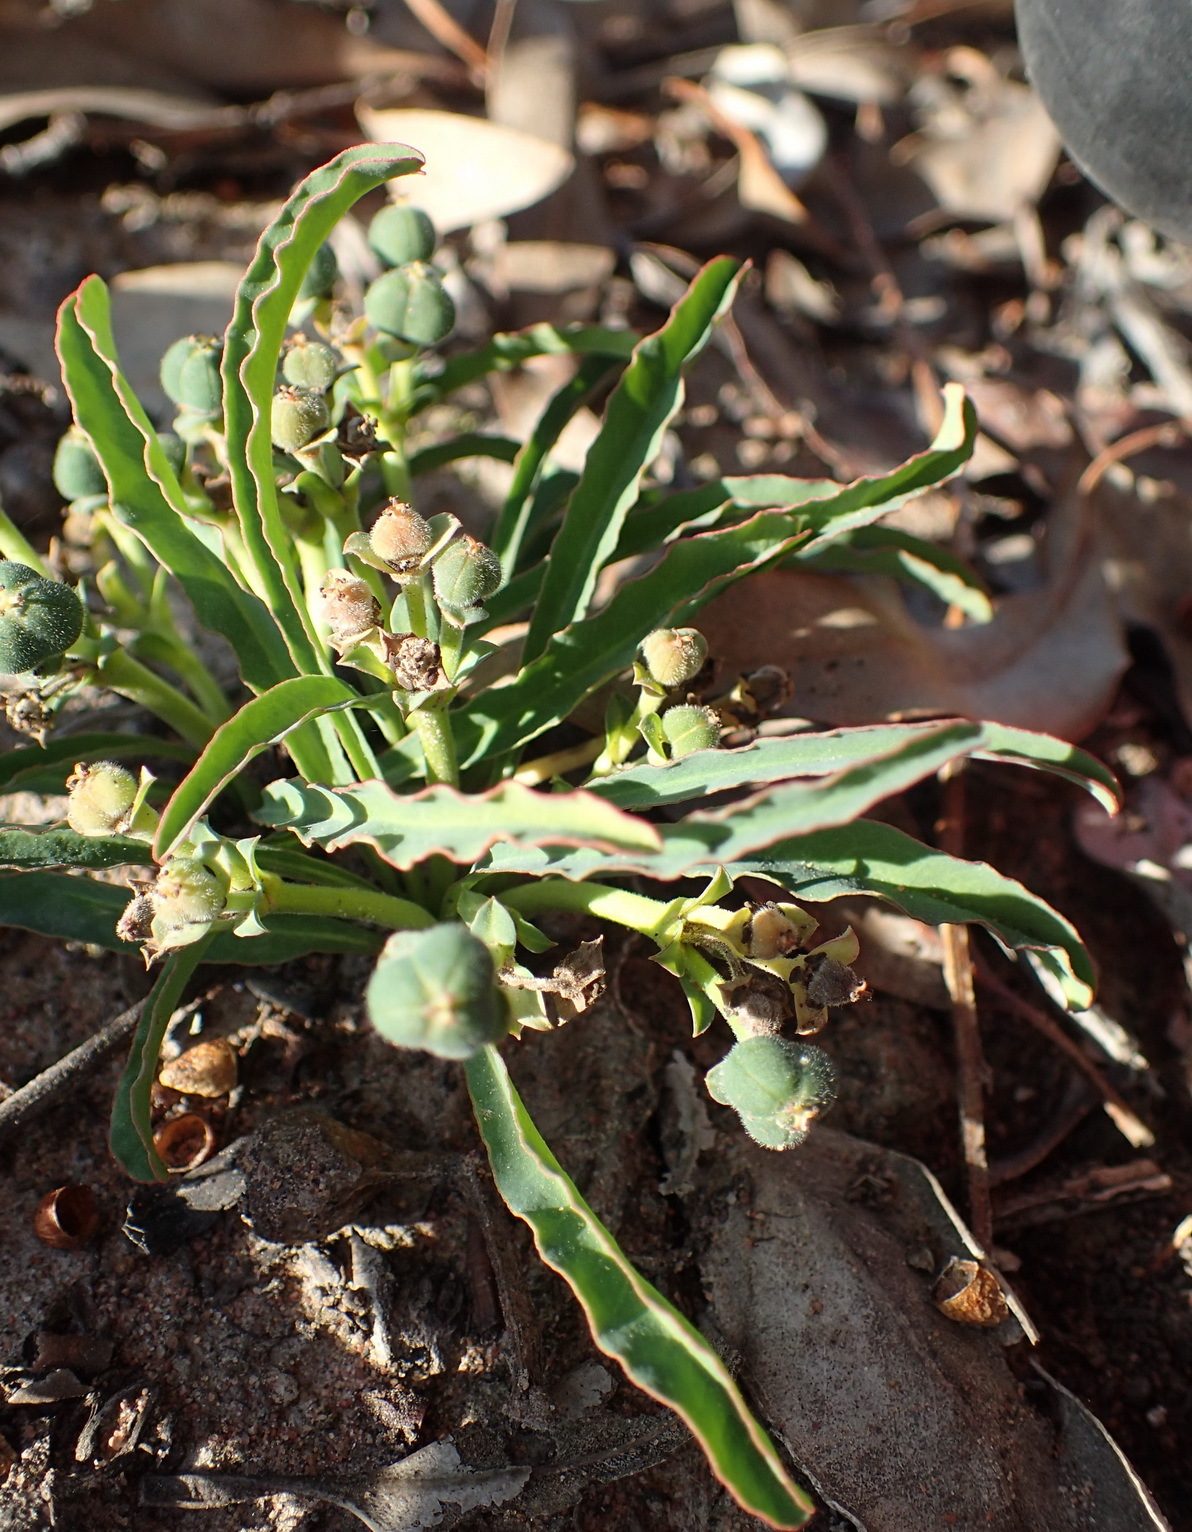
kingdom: Plantae
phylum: Tracheophyta
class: Magnoliopsida
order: Malpighiales
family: Euphorbiaceae
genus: Euphorbia
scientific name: Euphorbia silenifolia
